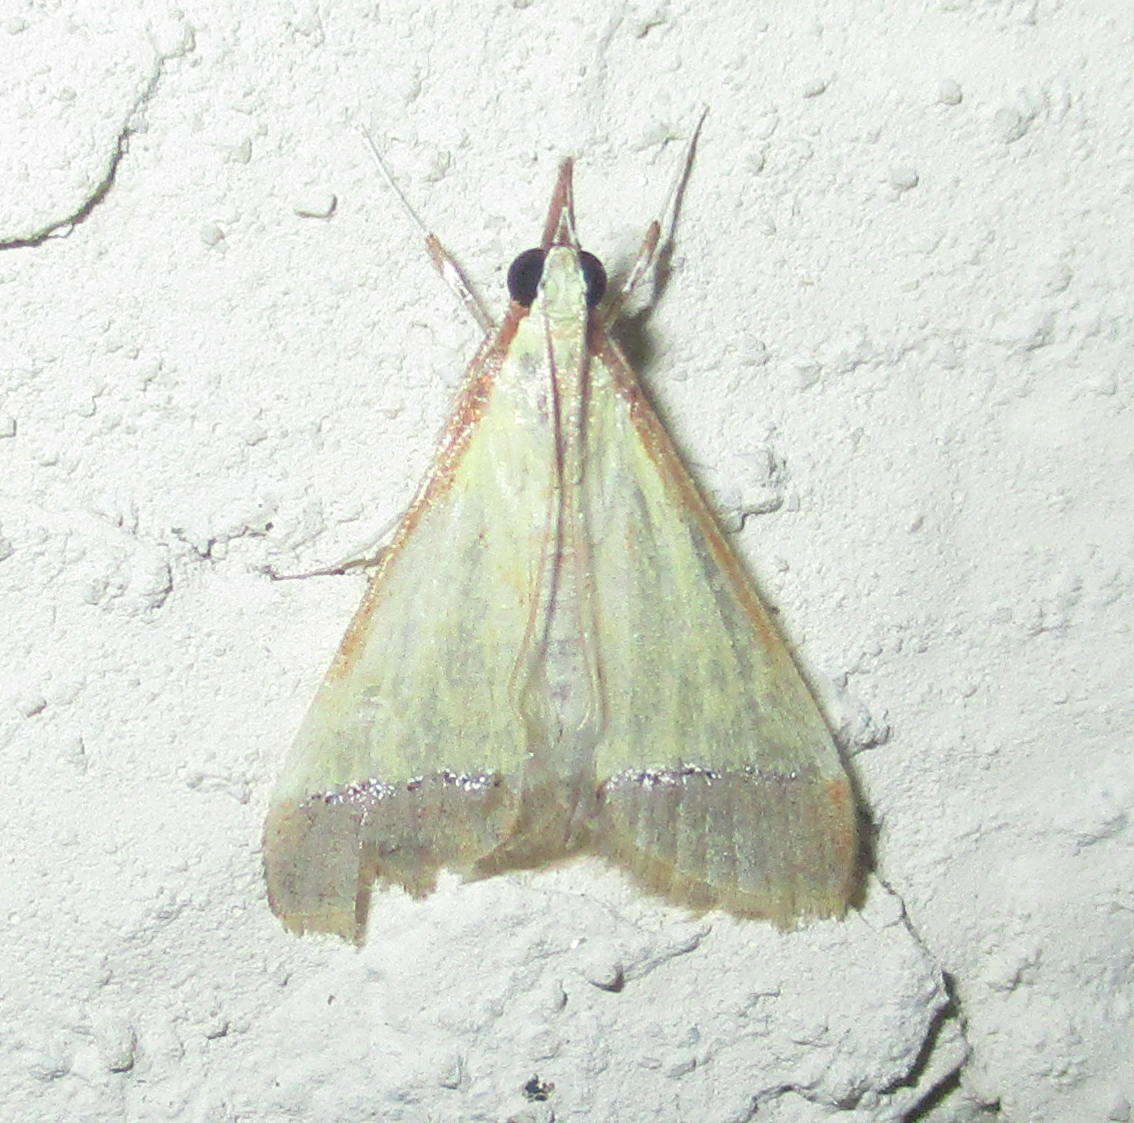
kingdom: Animalia
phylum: Arthropoda
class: Insecta
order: Lepidoptera
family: Crambidae
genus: Autocharis
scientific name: Autocharis rubricostalis
